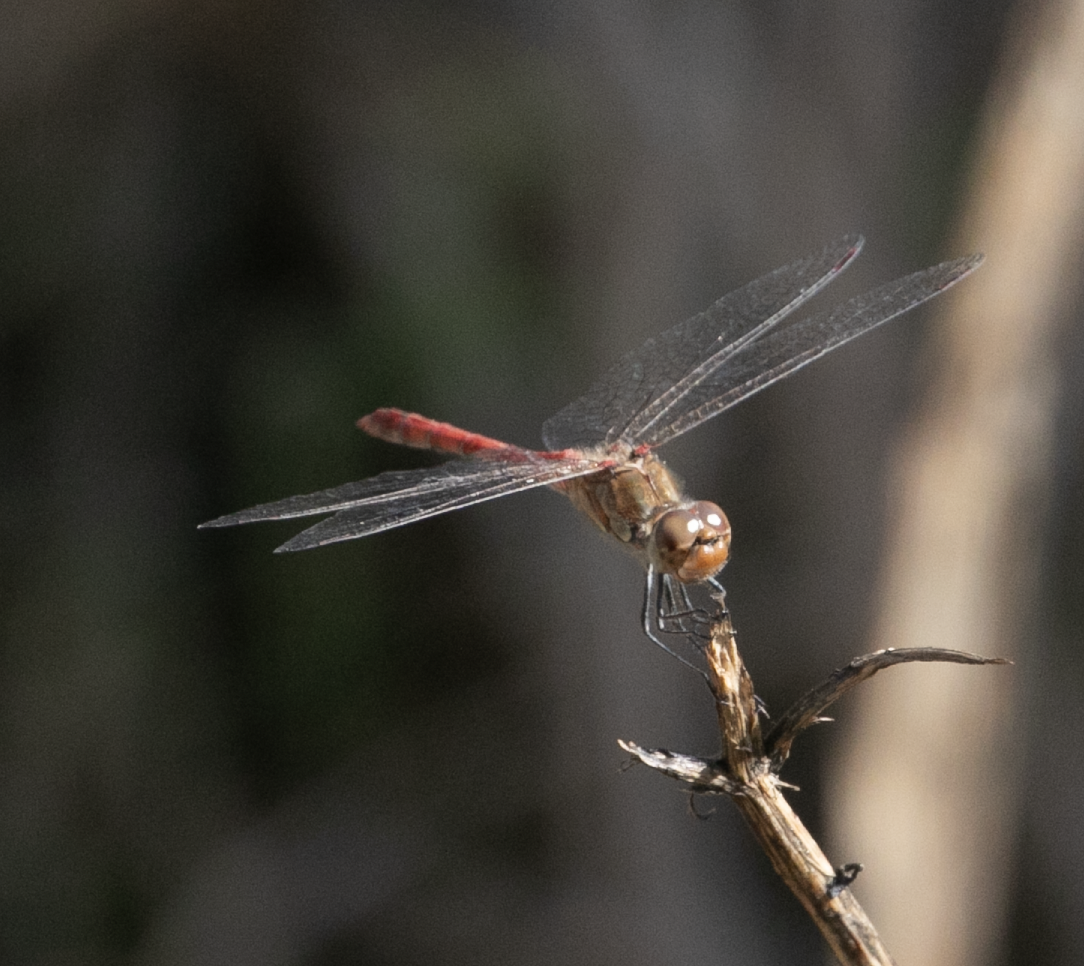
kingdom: Animalia
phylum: Arthropoda
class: Insecta
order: Odonata
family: Libellulidae
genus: Sympetrum
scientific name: Sympetrum striolatum
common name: Common darter
